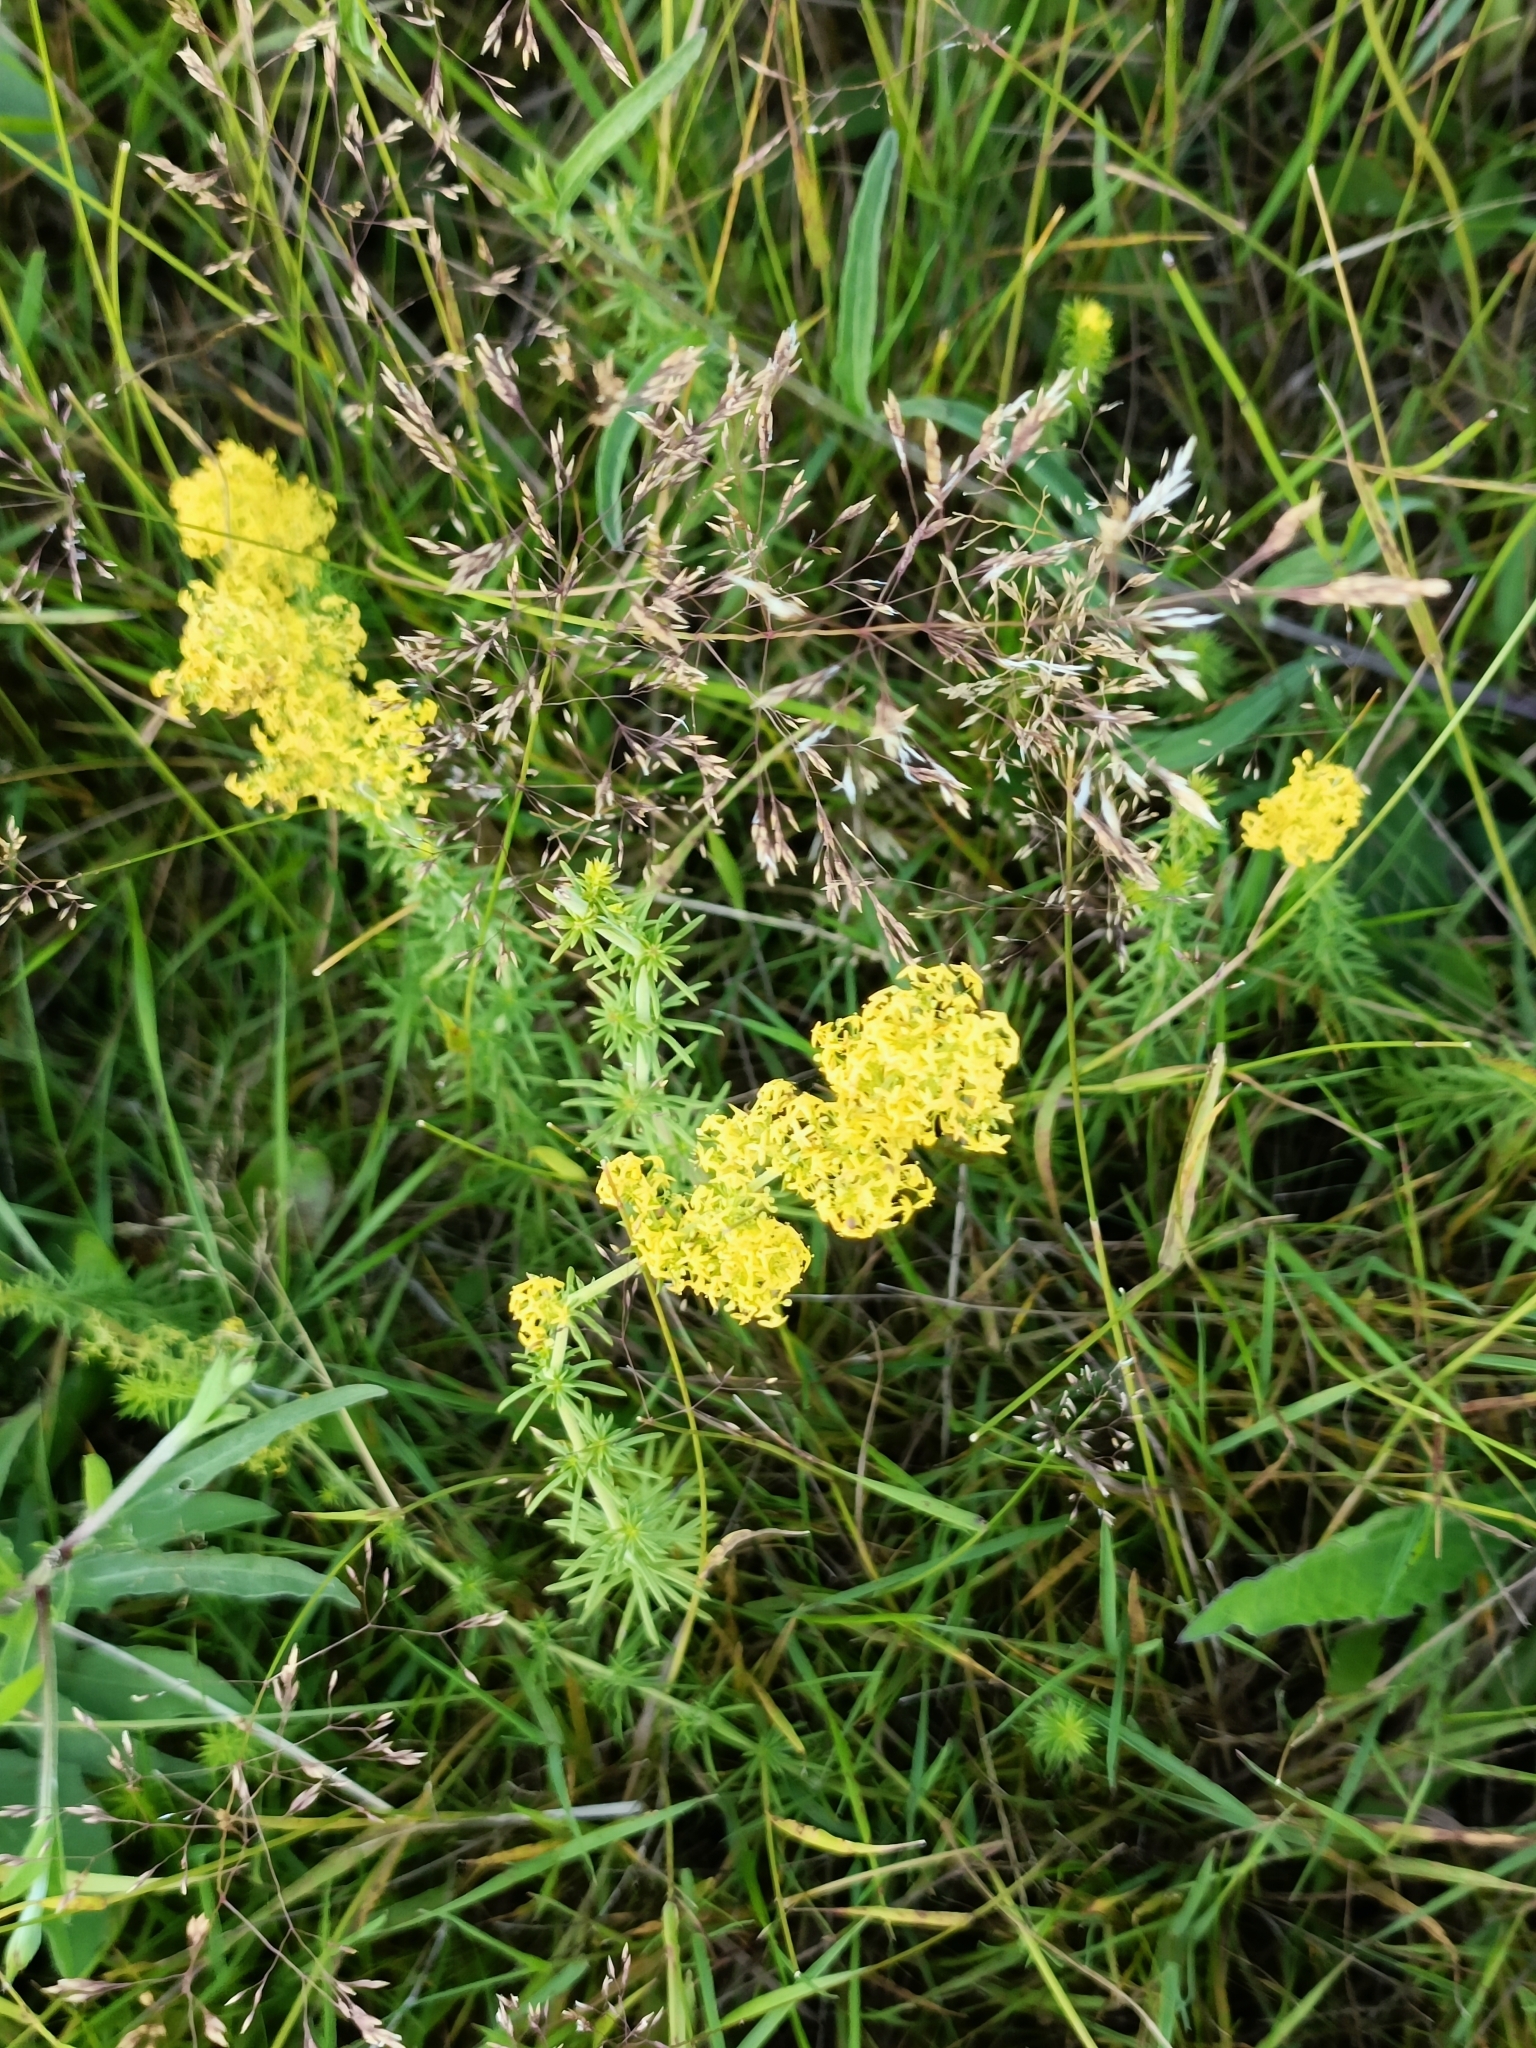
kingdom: Plantae
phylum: Tracheophyta
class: Magnoliopsida
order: Gentianales
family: Rubiaceae
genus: Galium
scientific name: Galium verum
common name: Lady's bedstraw
